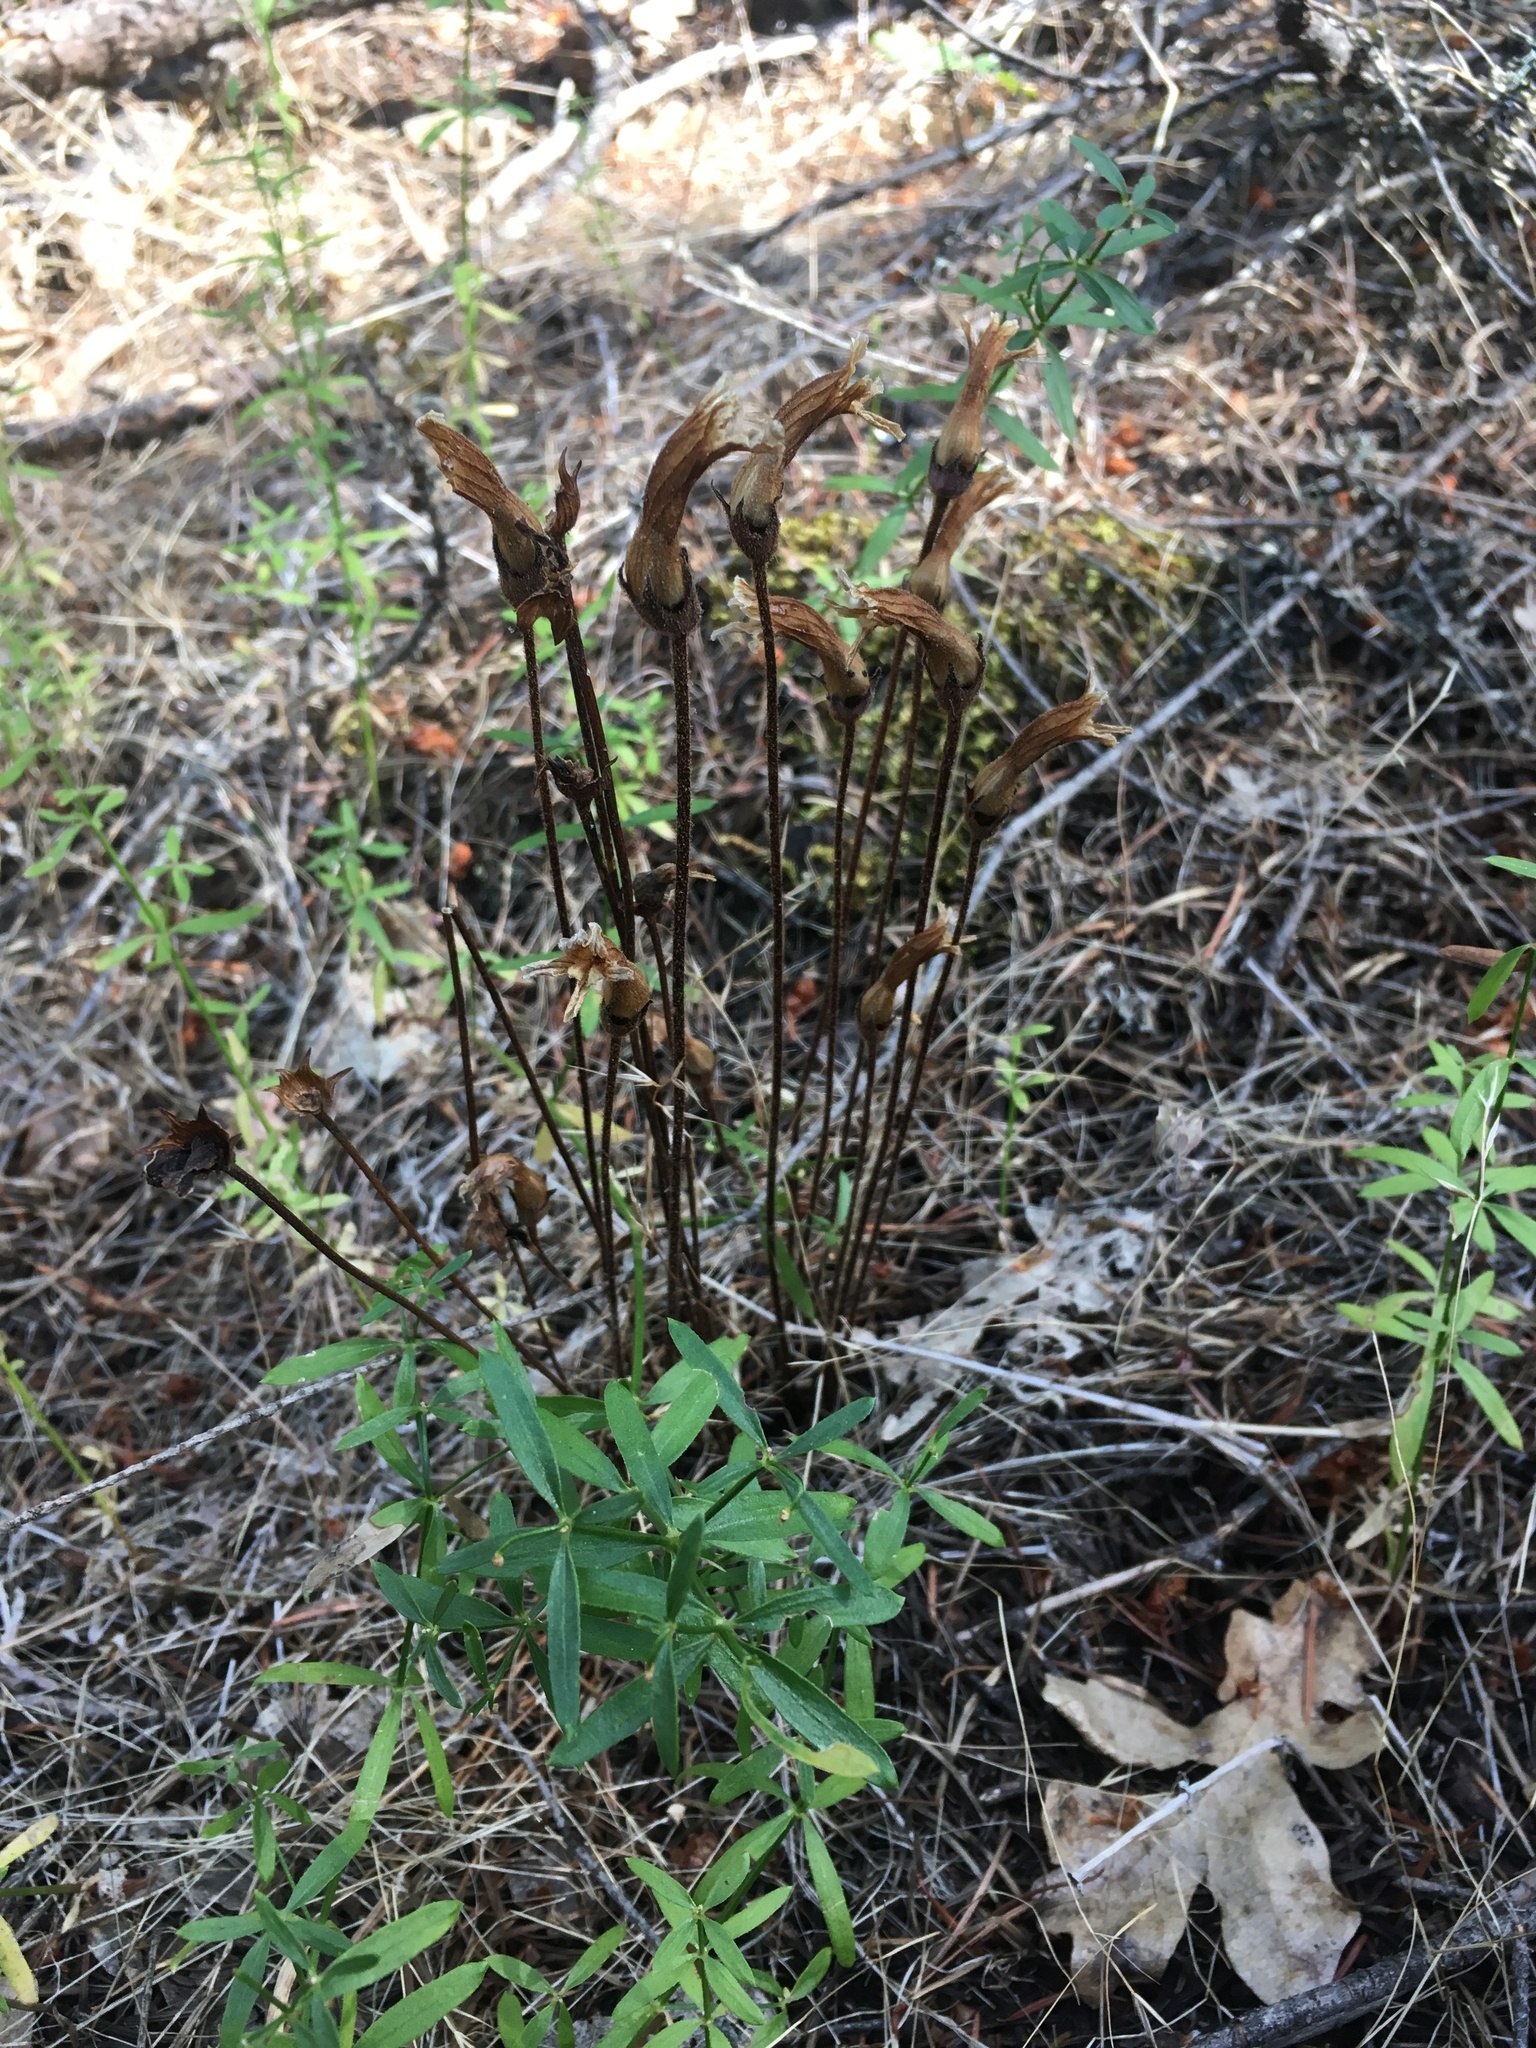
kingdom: Plantae
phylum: Tracheophyta
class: Magnoliopsida
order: Lamiales
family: Orobanchaceae
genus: Aphyllon
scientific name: Aphyllon epigalium
